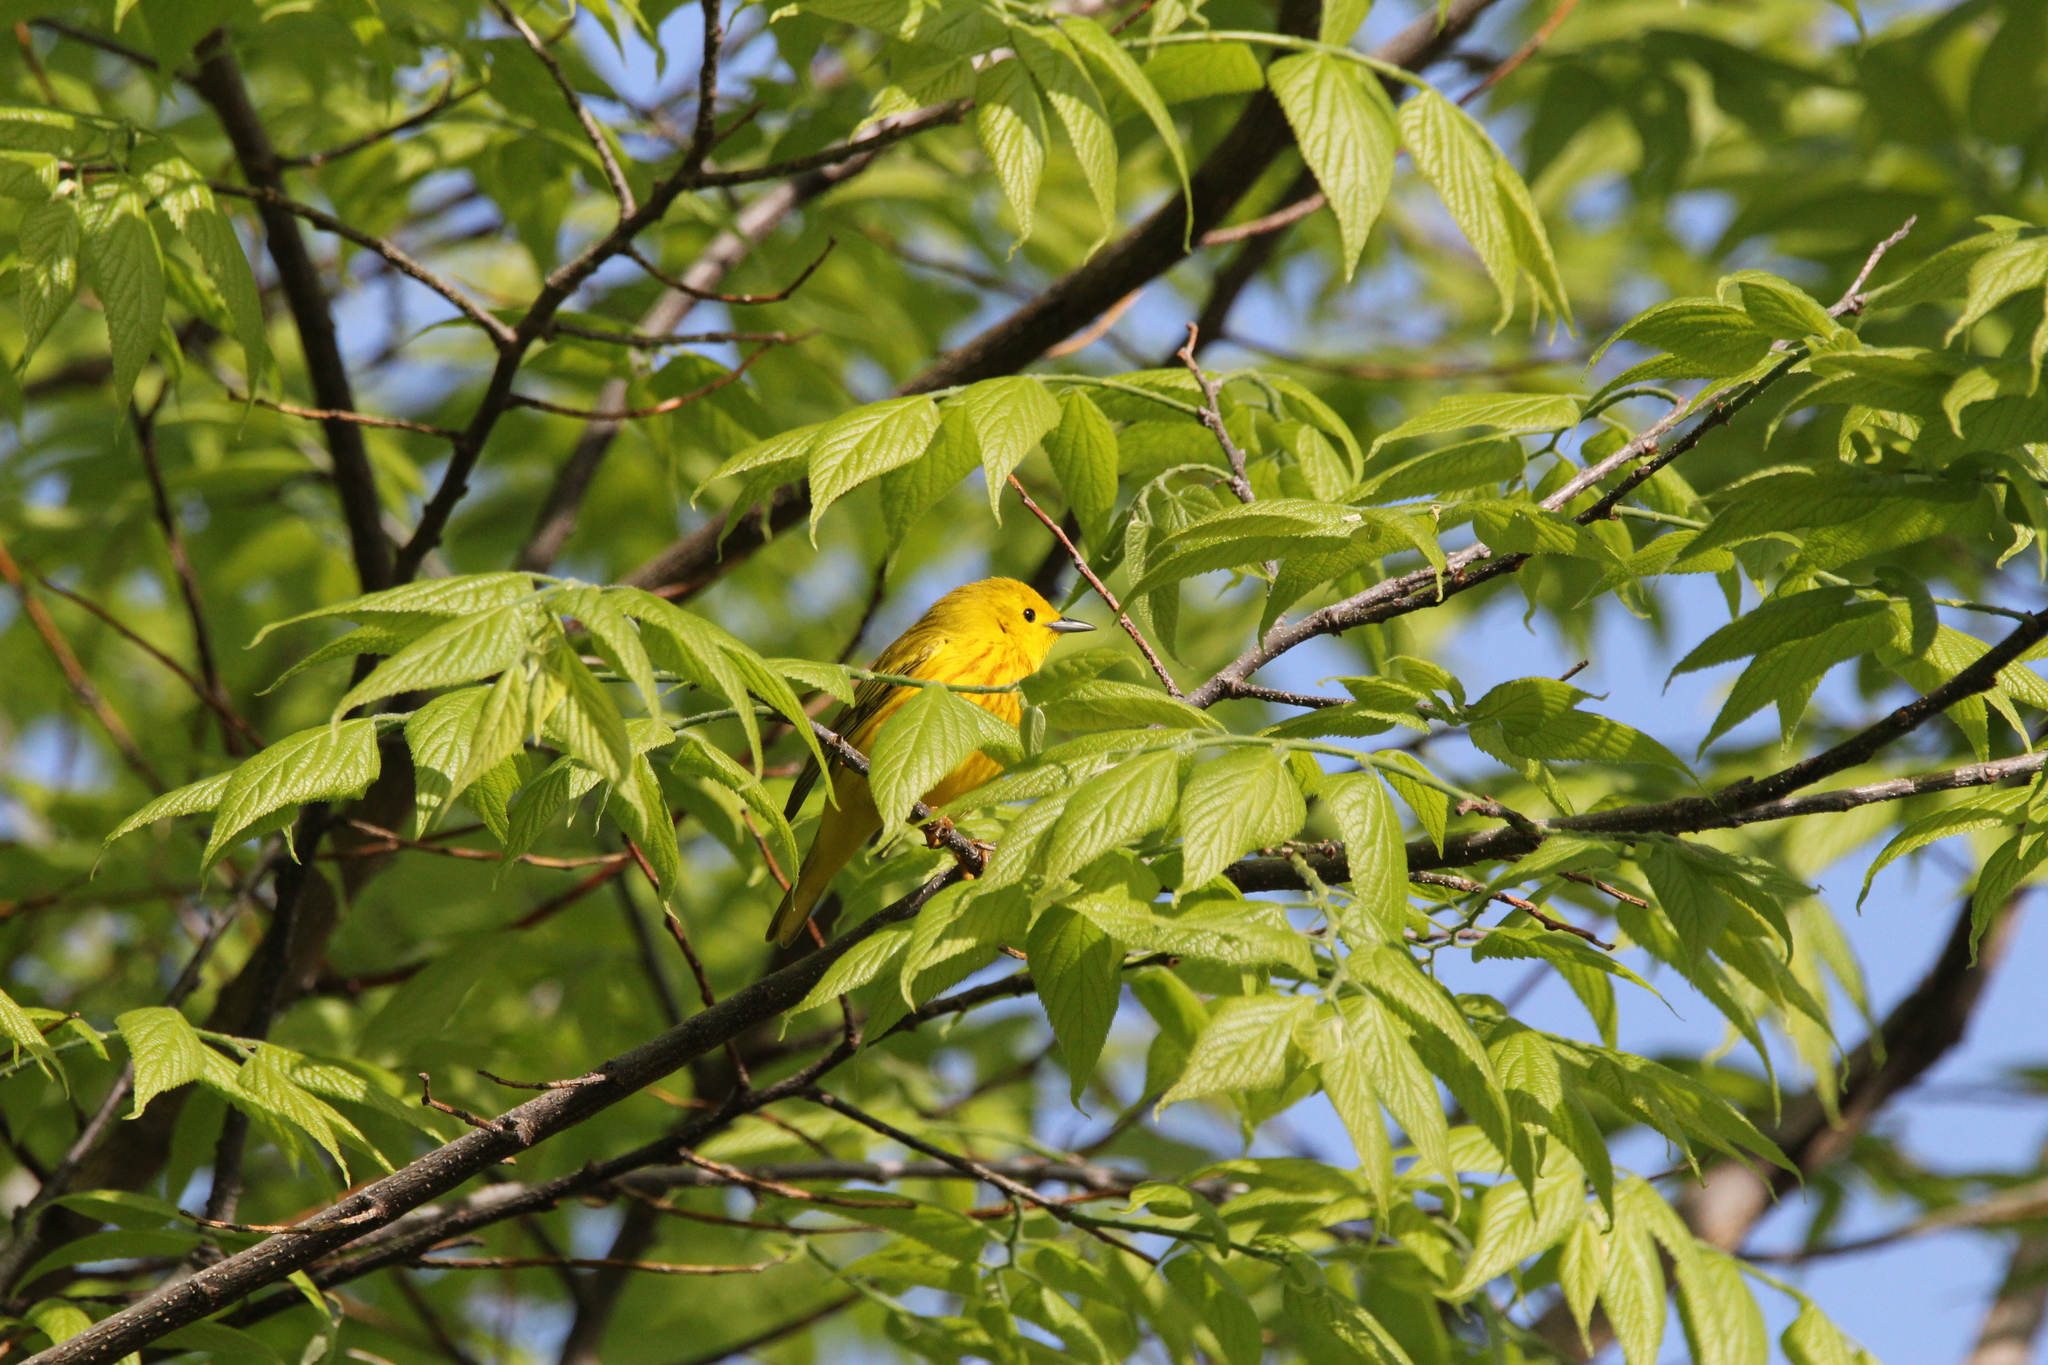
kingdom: Animalia
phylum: Chordata
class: Aves
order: Passeriformes
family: Parulidae
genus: Setophaga
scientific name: Setophaga petechia
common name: Yellow warbler
